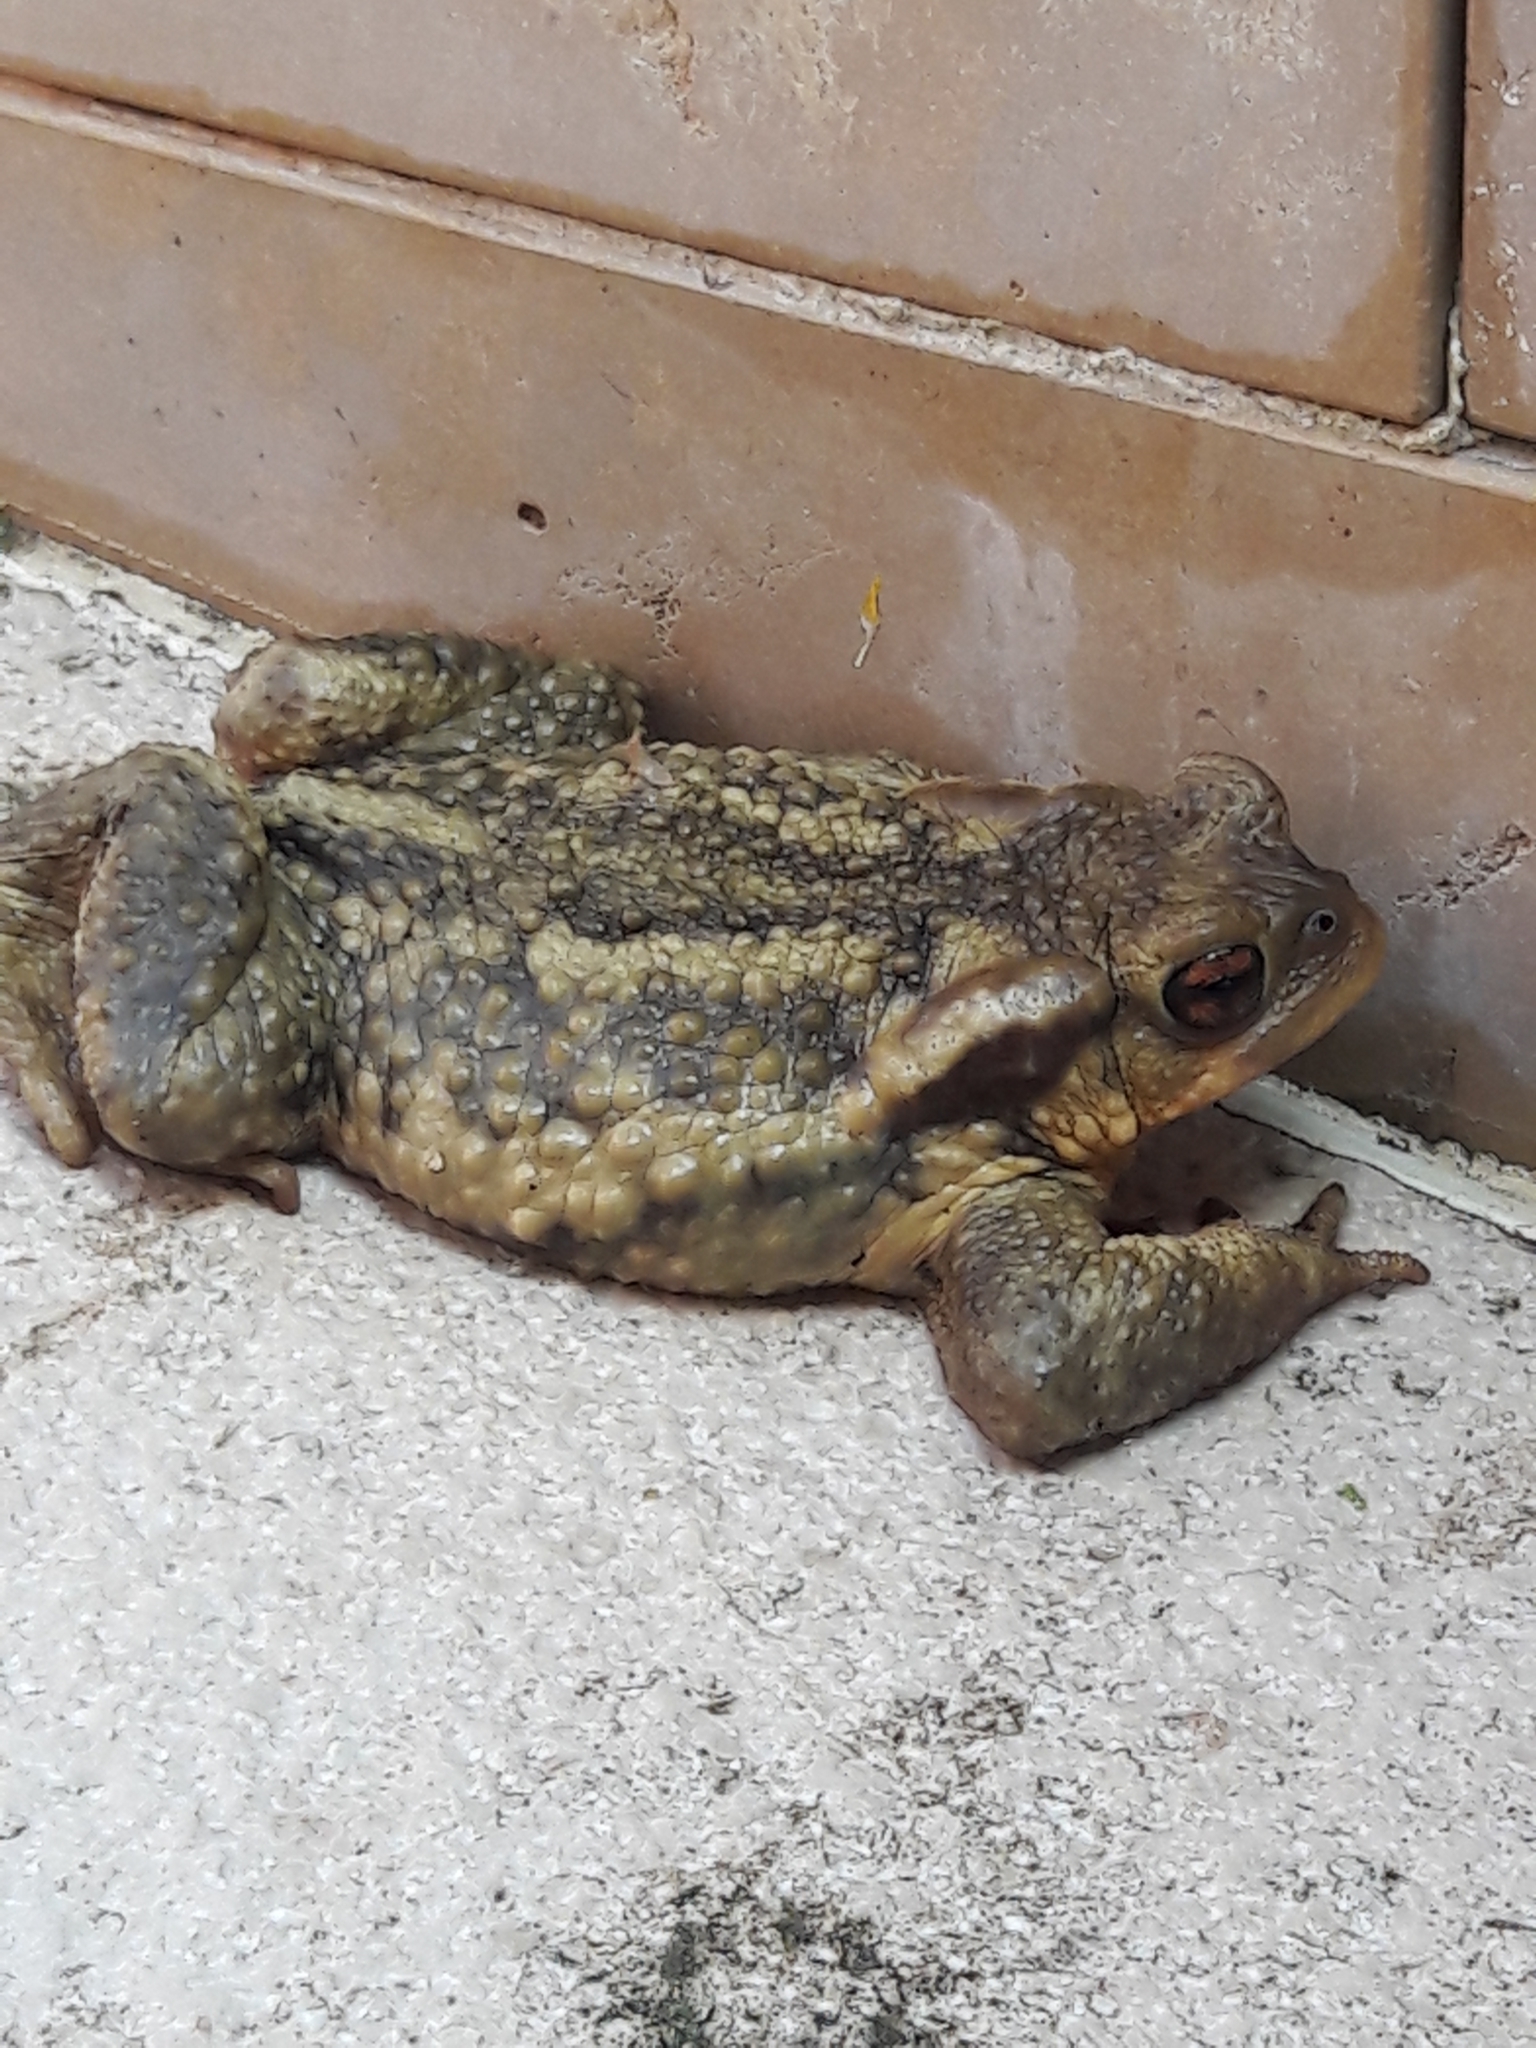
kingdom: Animalia
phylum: Chordata
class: Amphibia
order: Anura
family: Bufonidae
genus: Bufo
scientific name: Bufo spinosus
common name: Western common toad
